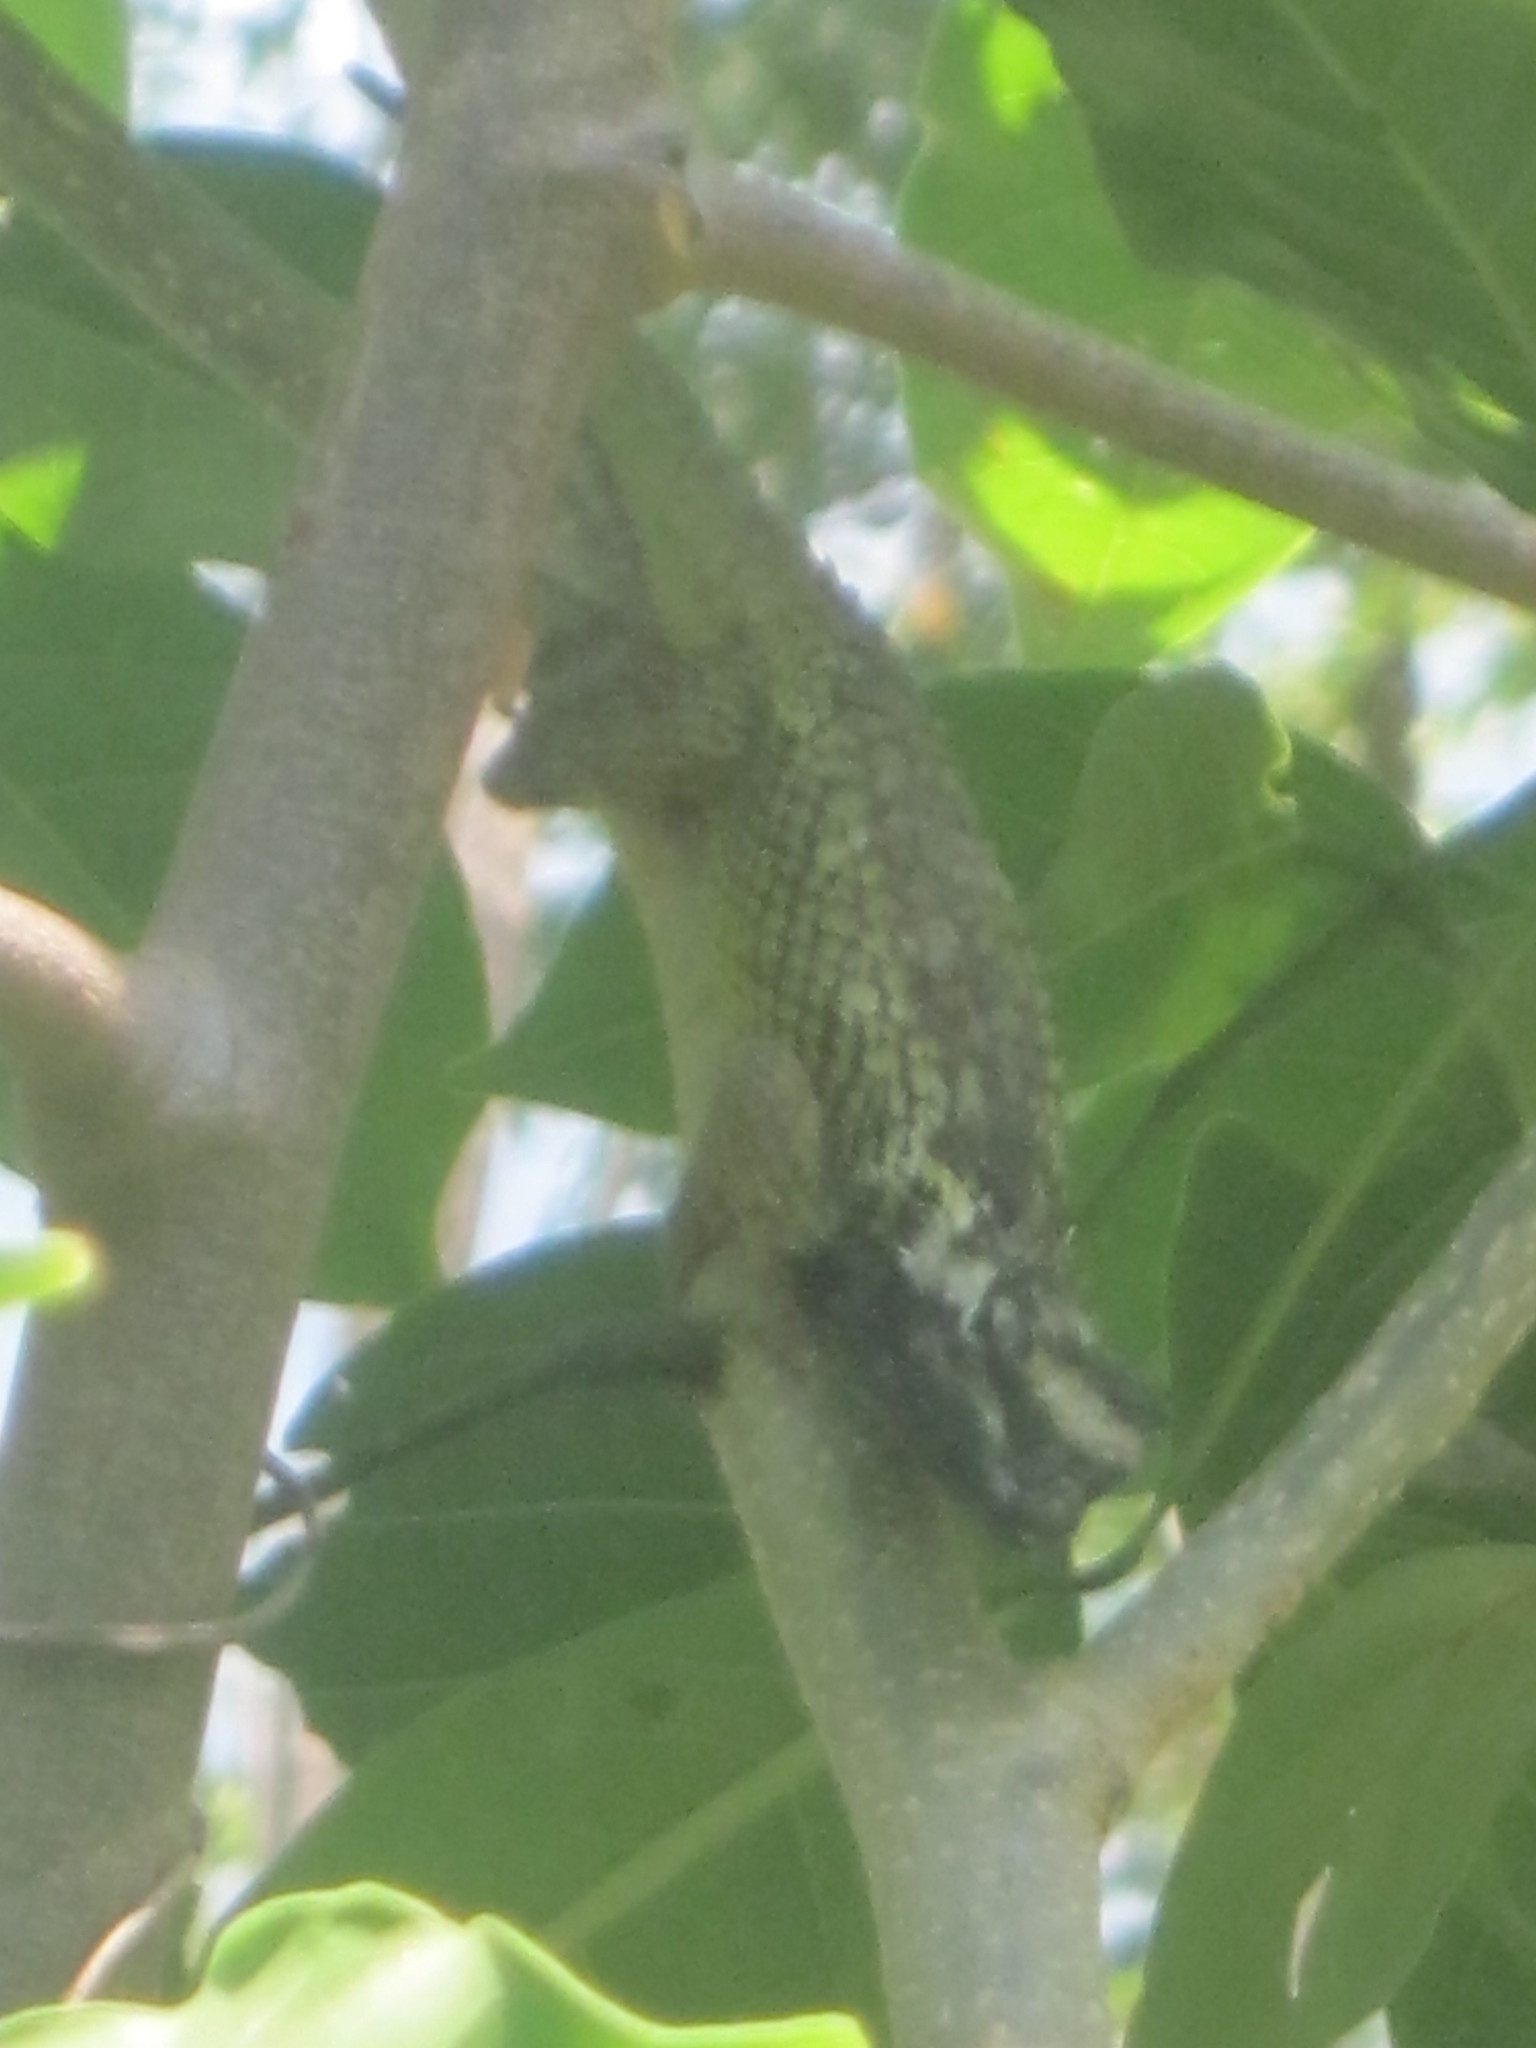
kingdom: Animalia
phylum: Chordata
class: Squamata
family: Phrynosomatidae
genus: Sceloporus
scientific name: Sceloporus melanorhinus
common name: Black-nosed lizard
